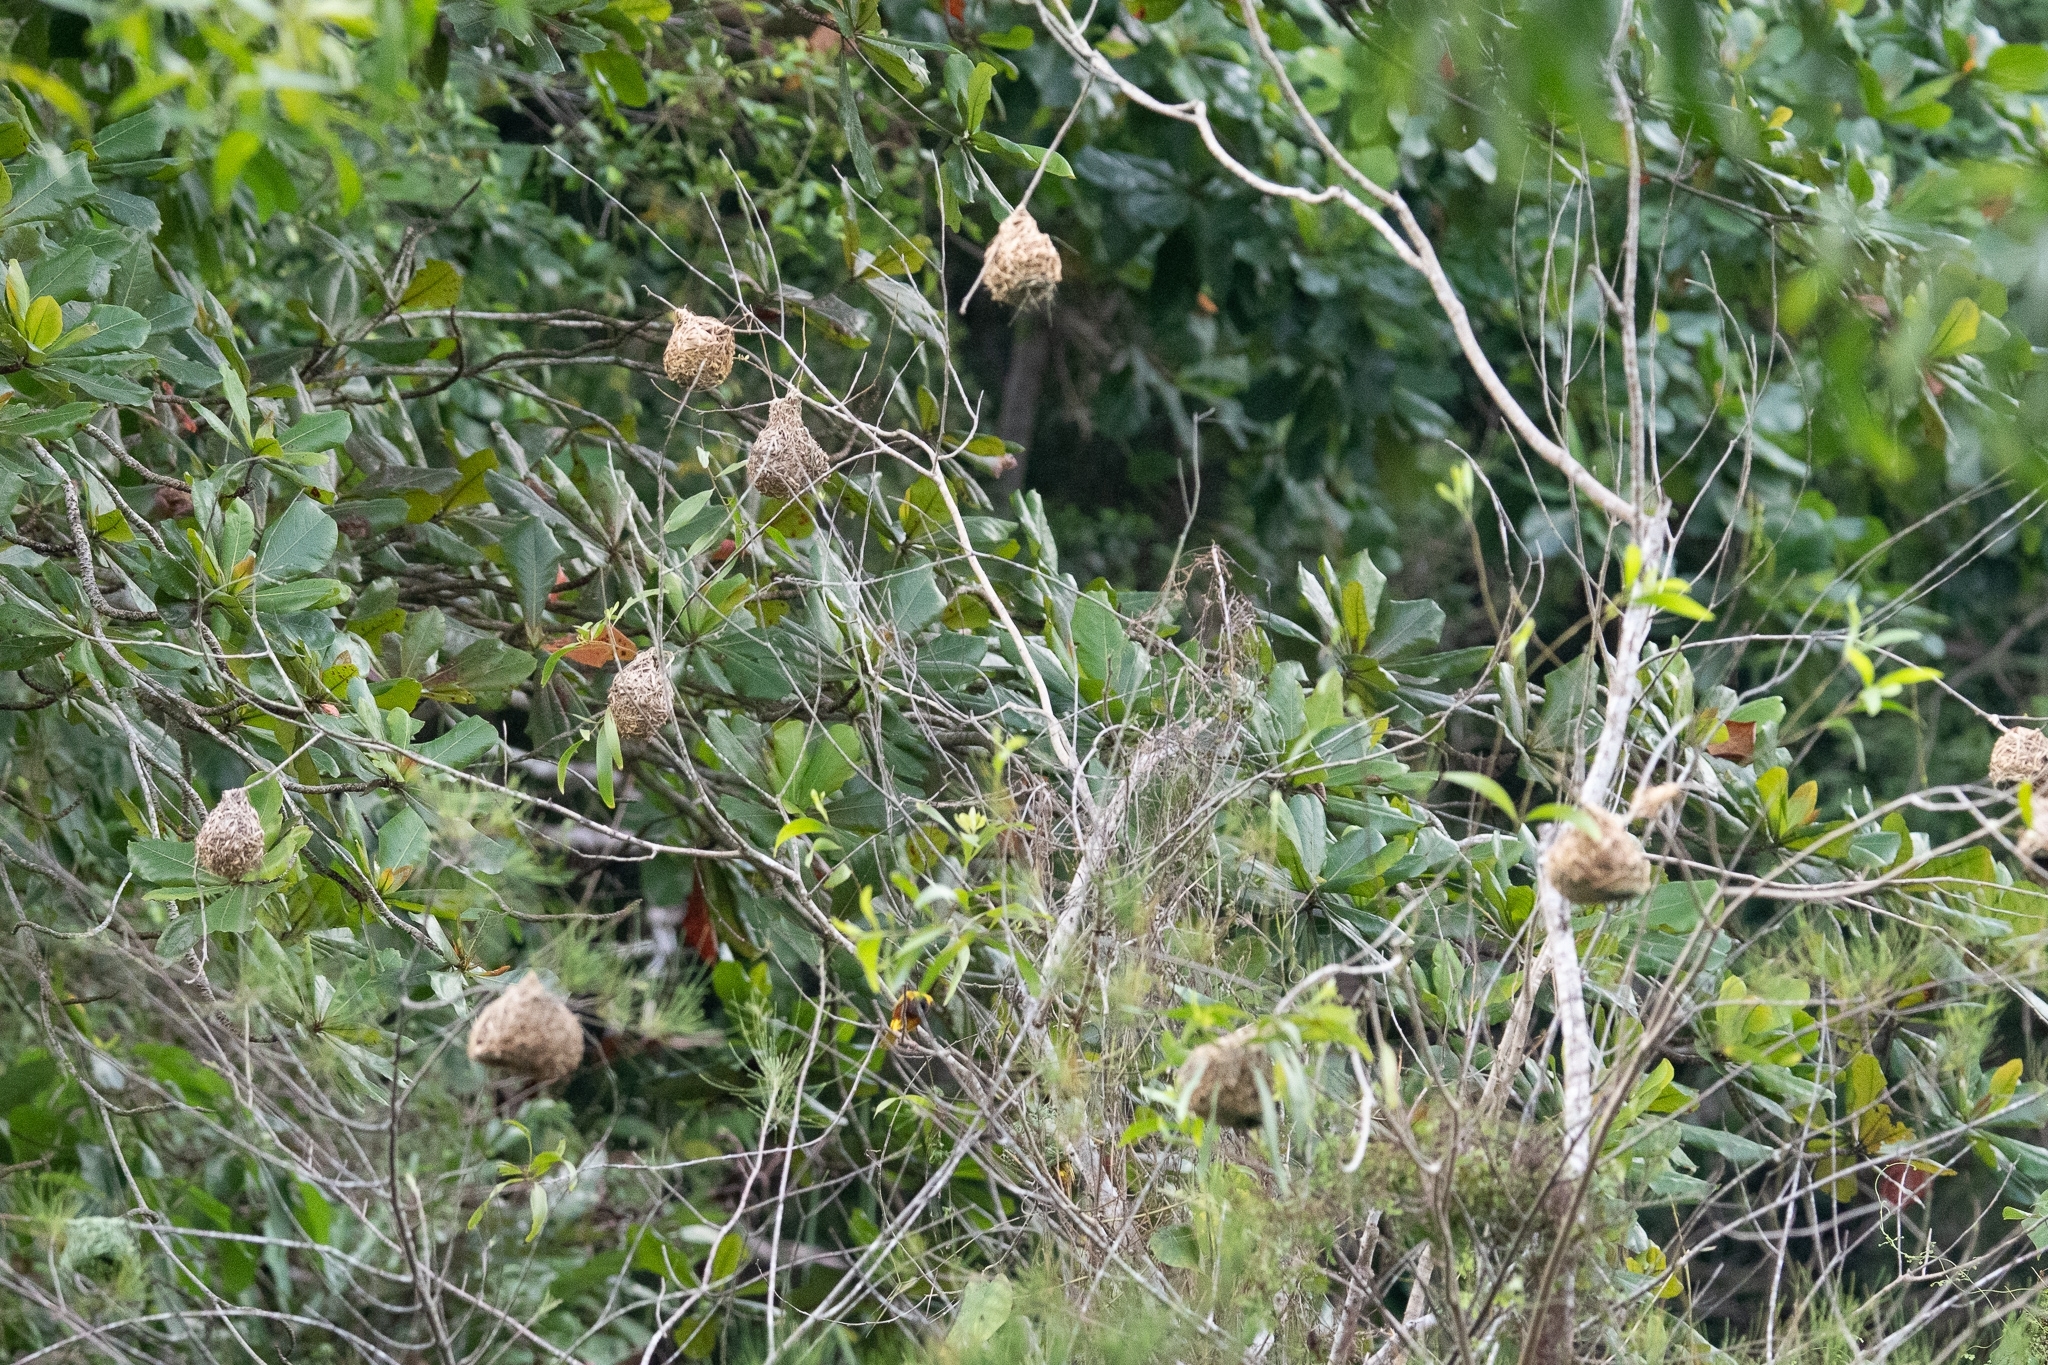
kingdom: Animalia
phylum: Chordata
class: Aves
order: Passeriformes
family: Ploceidae
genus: Ploceus
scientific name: Ploceus jacksoni
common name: Golden-backed weaver
